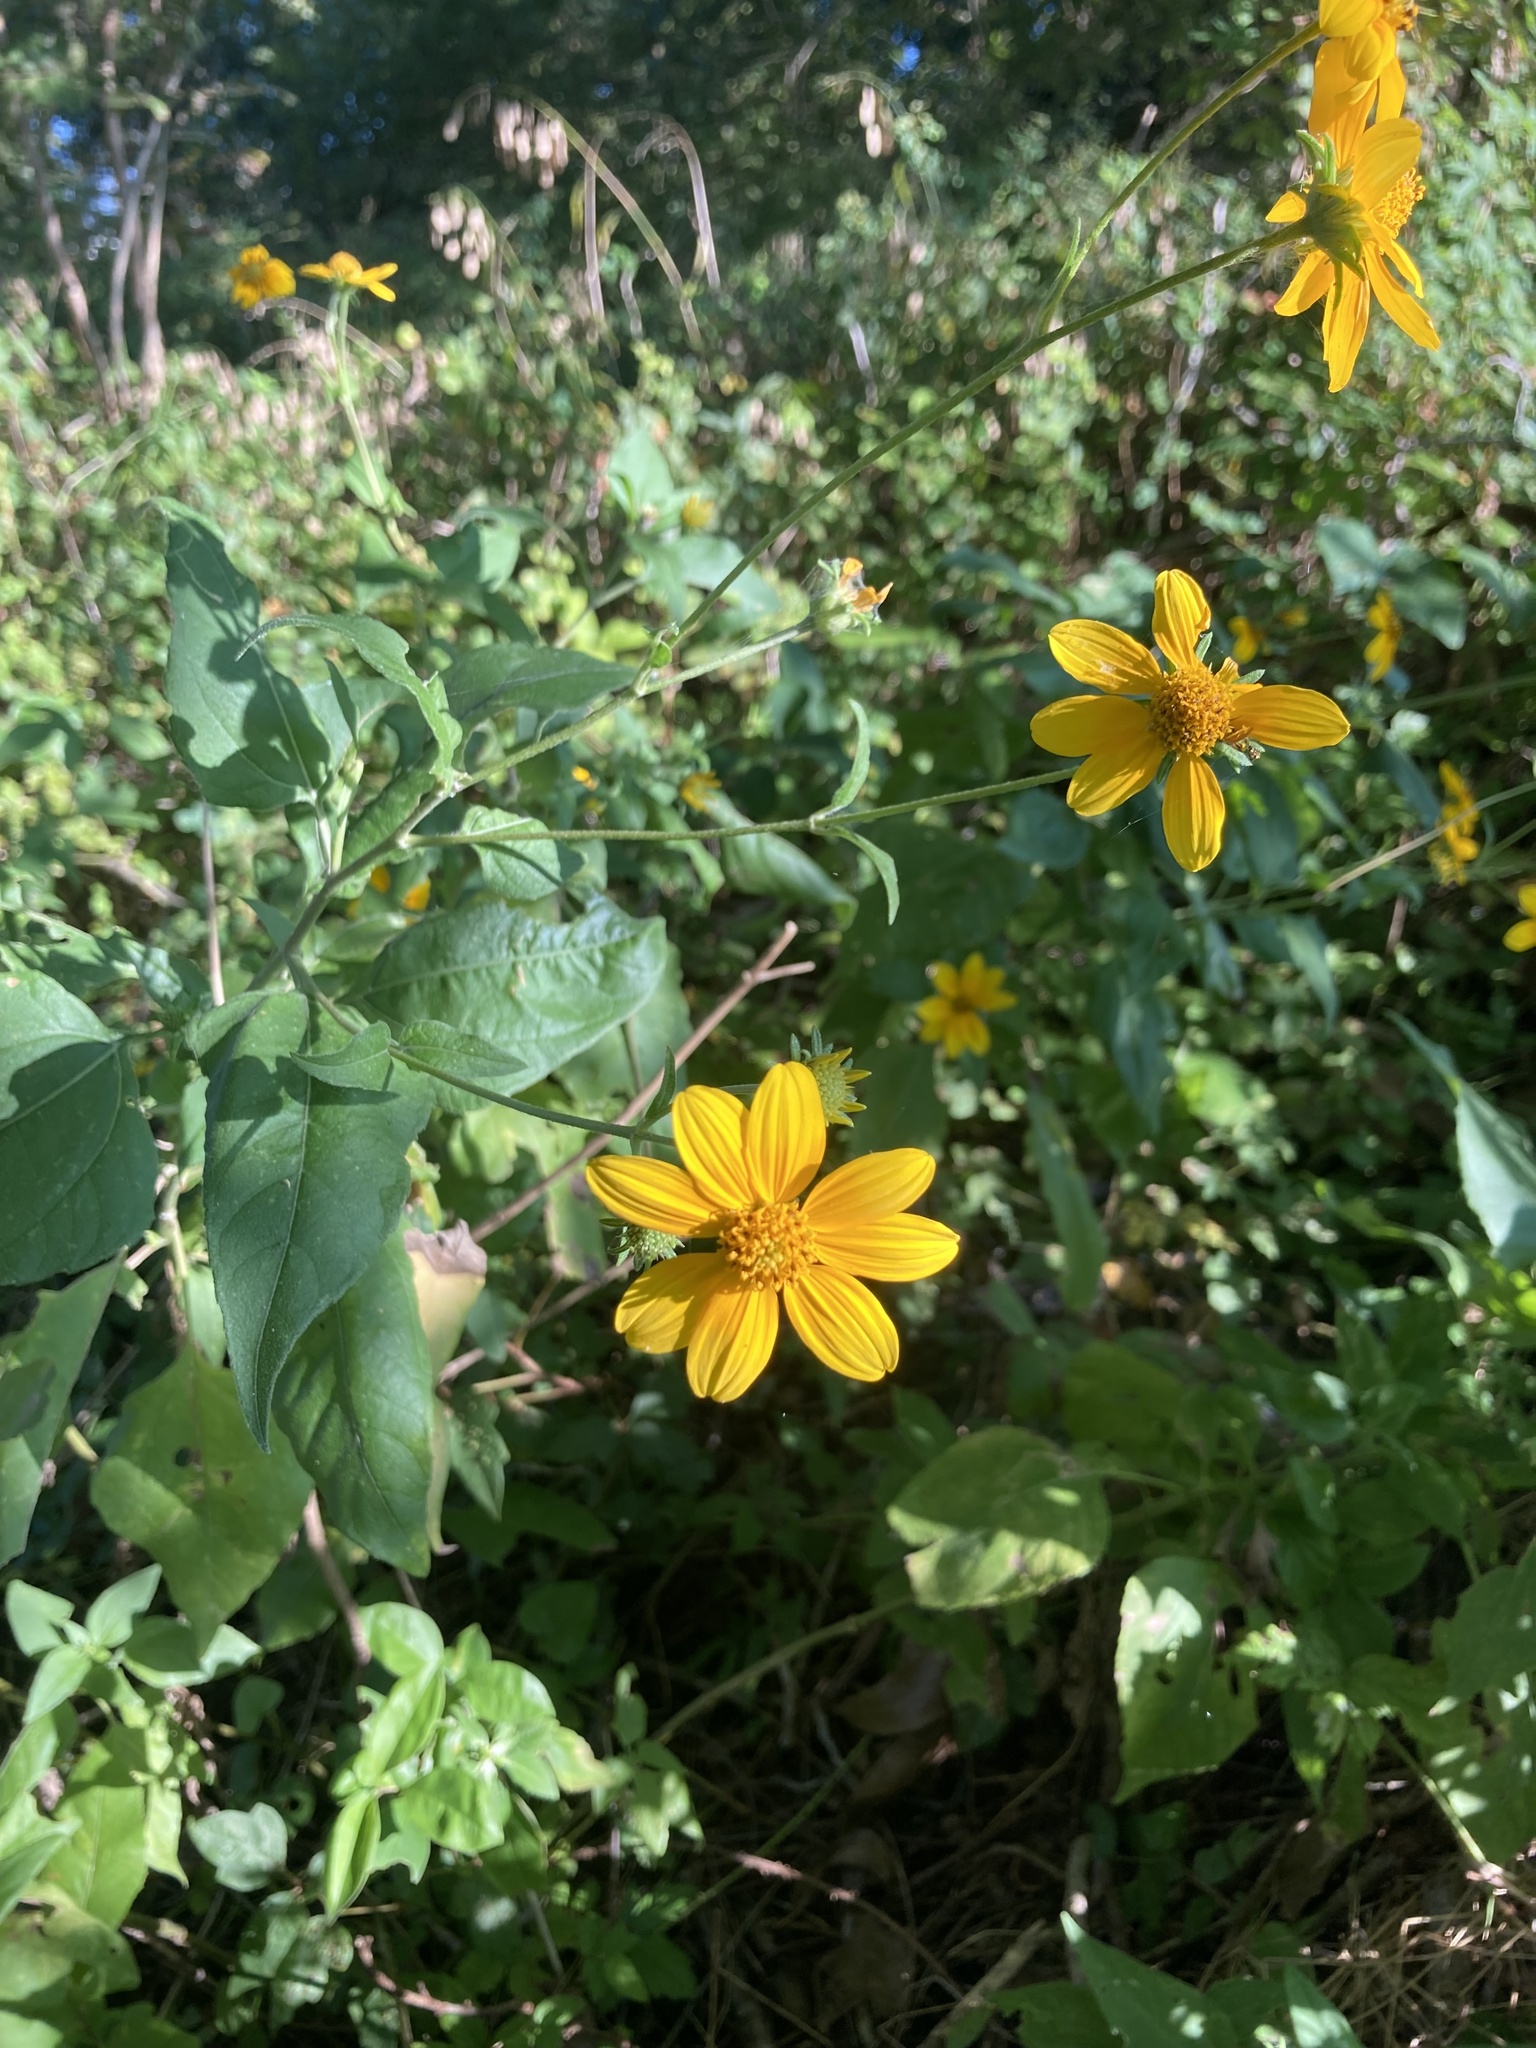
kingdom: Plantae
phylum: Tracheophyta
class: Magnoliopsida
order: Asterales
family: Asteraceae
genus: Viguiera
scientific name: Viguiera dentata
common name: Toothleaf
